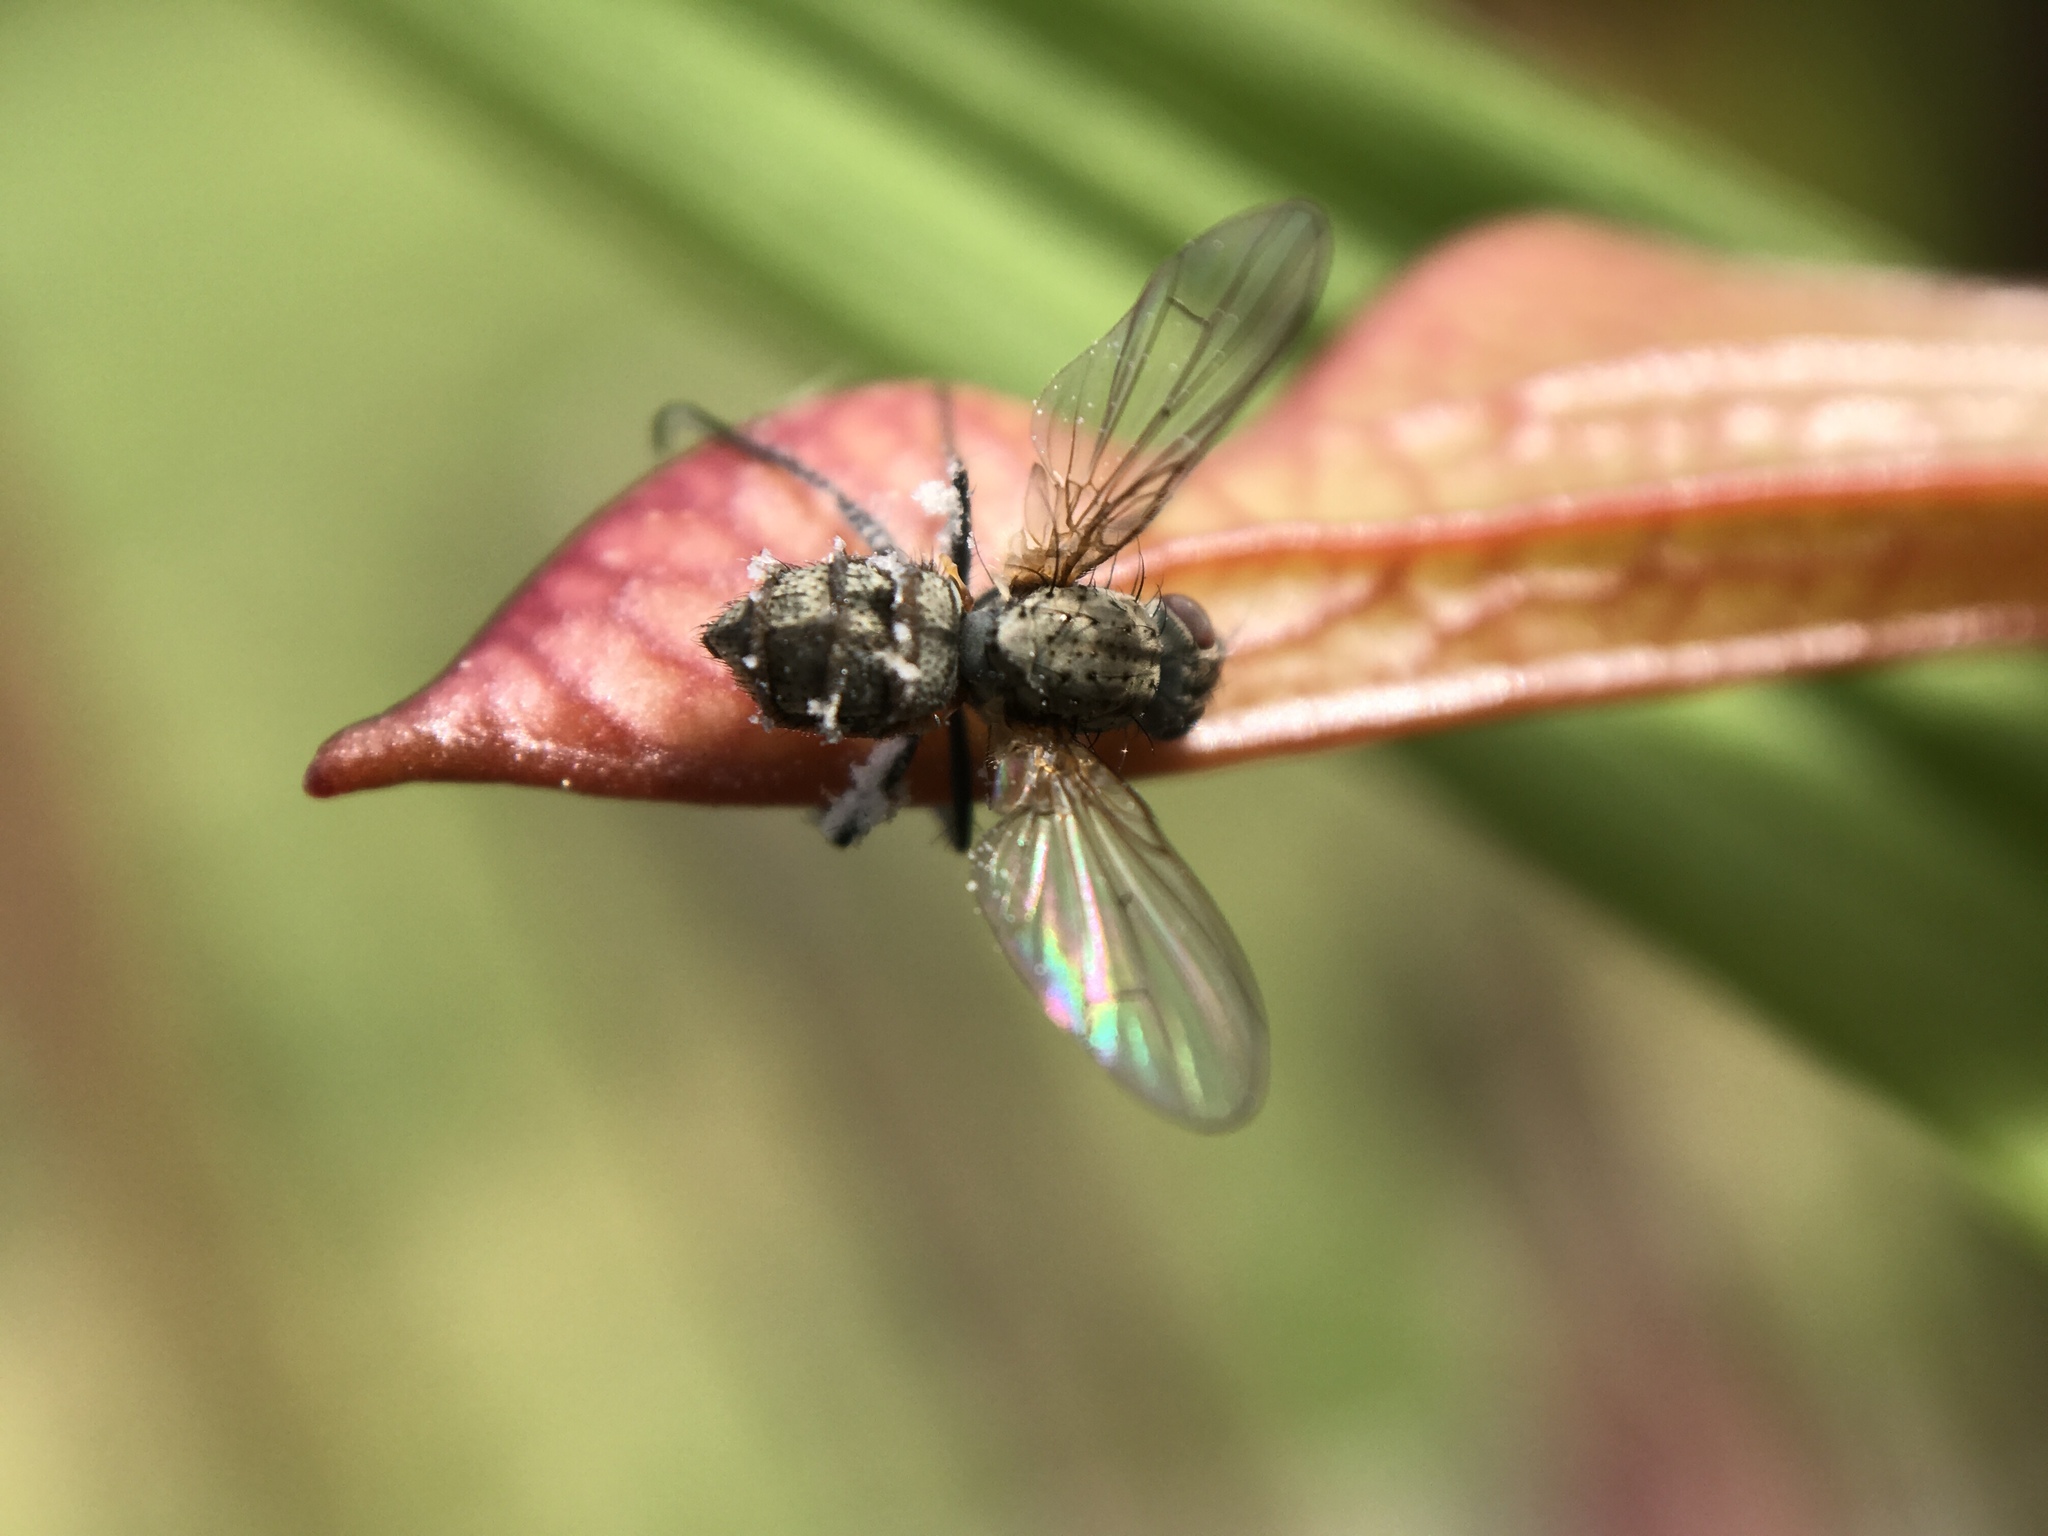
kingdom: Fungi
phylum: Entomophthoromycota
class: Entomophthoromycetes
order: Entomophthorales
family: Entomophthoraceae
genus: Entomophthora
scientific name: Entomophthora
